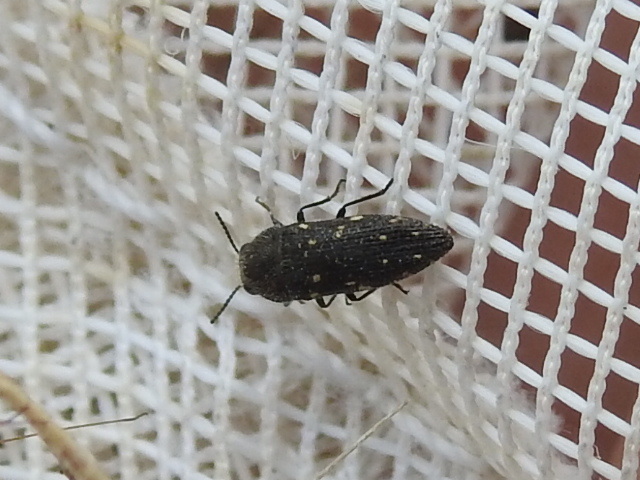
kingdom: Animalia
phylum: Arthropoda
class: Insecta
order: Coleoptera
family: Buprestidae
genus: Acmaeodera
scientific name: Acmaeodera tubulus
